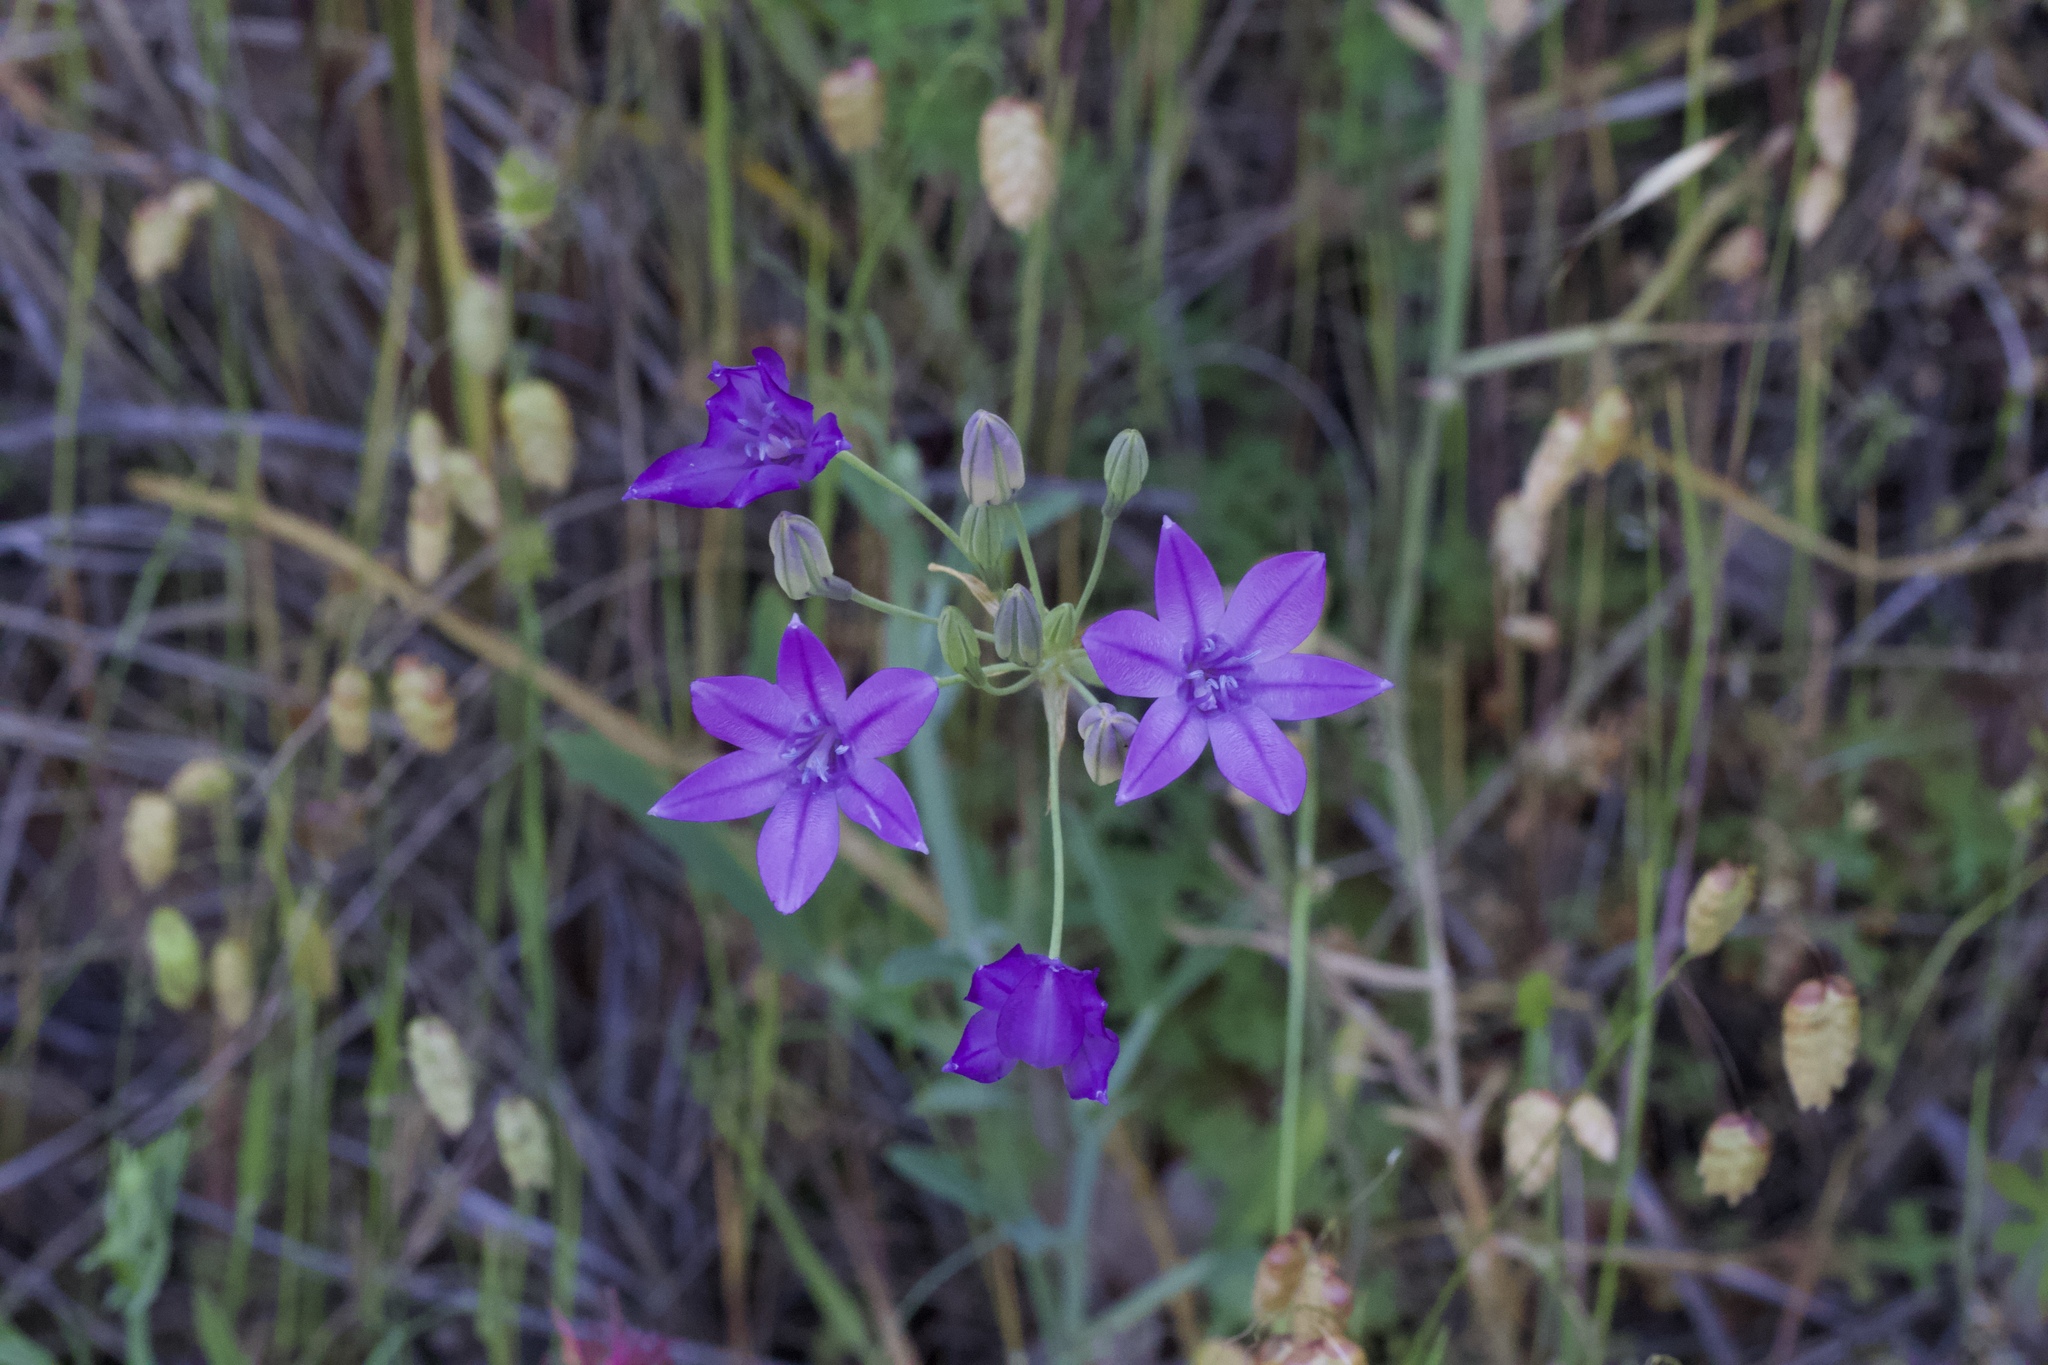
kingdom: Plantae
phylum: Tracheophyta
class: Liliopsida
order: Asparagales
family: Asparagaceae
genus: Triteleia
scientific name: Triteleia laxa
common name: Triplet-lily
